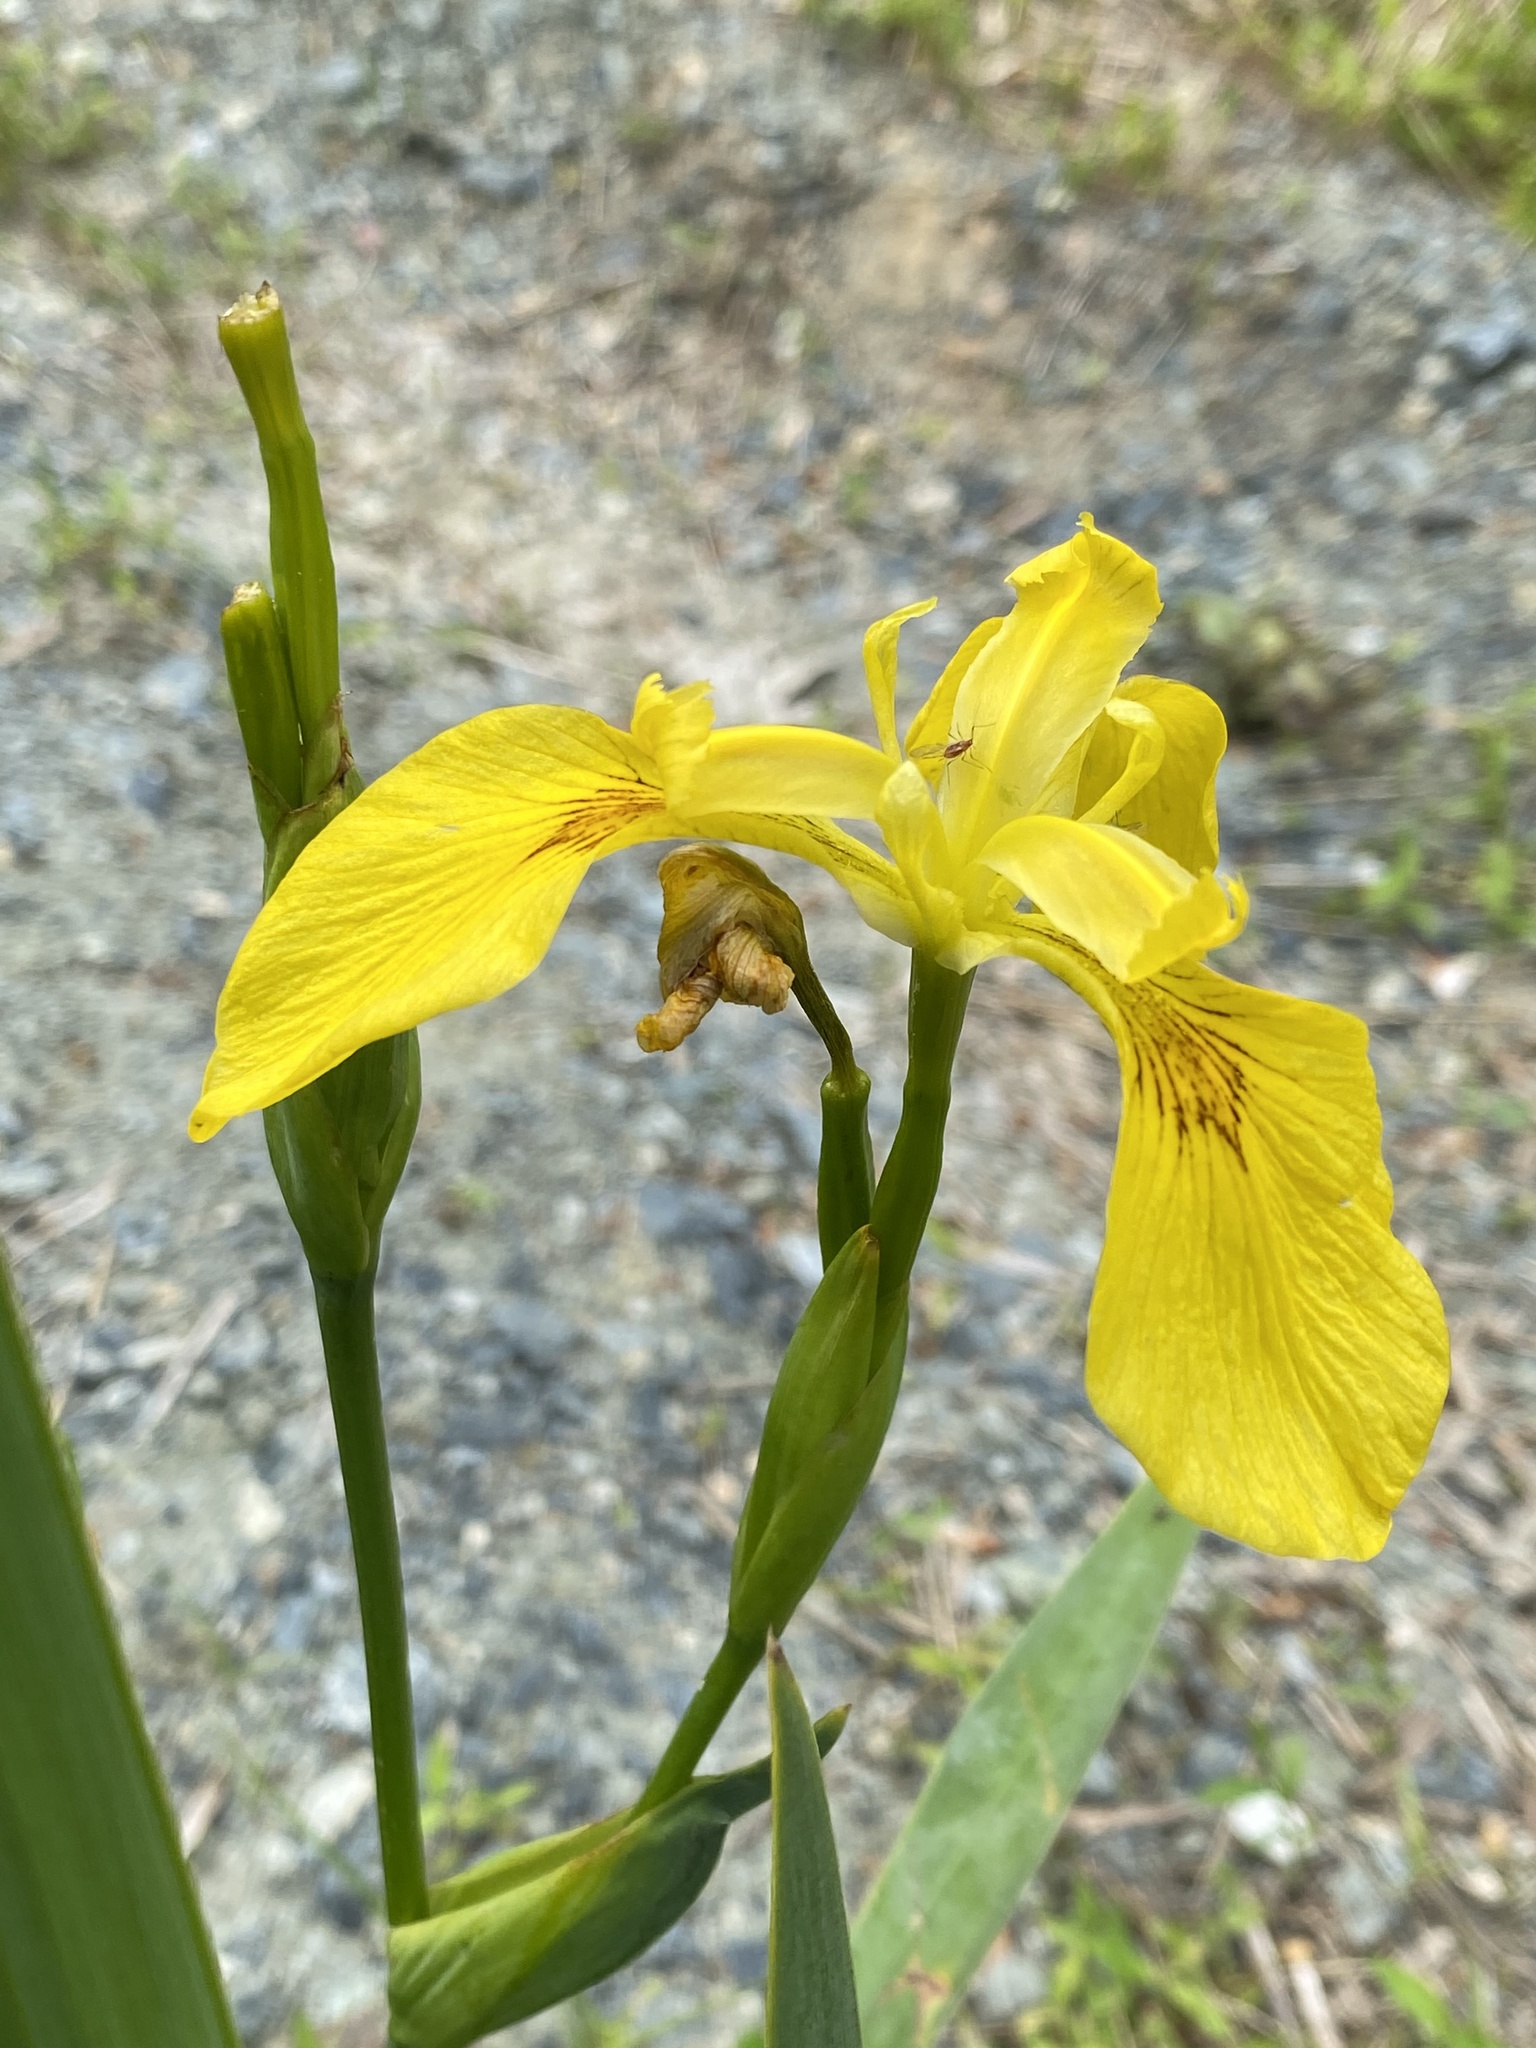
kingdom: Plantae
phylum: Tracheophyta
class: Liliopsida
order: Asparagales
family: Iridaceae
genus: Iris
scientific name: Iris pseudacorus
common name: Yellow flag
